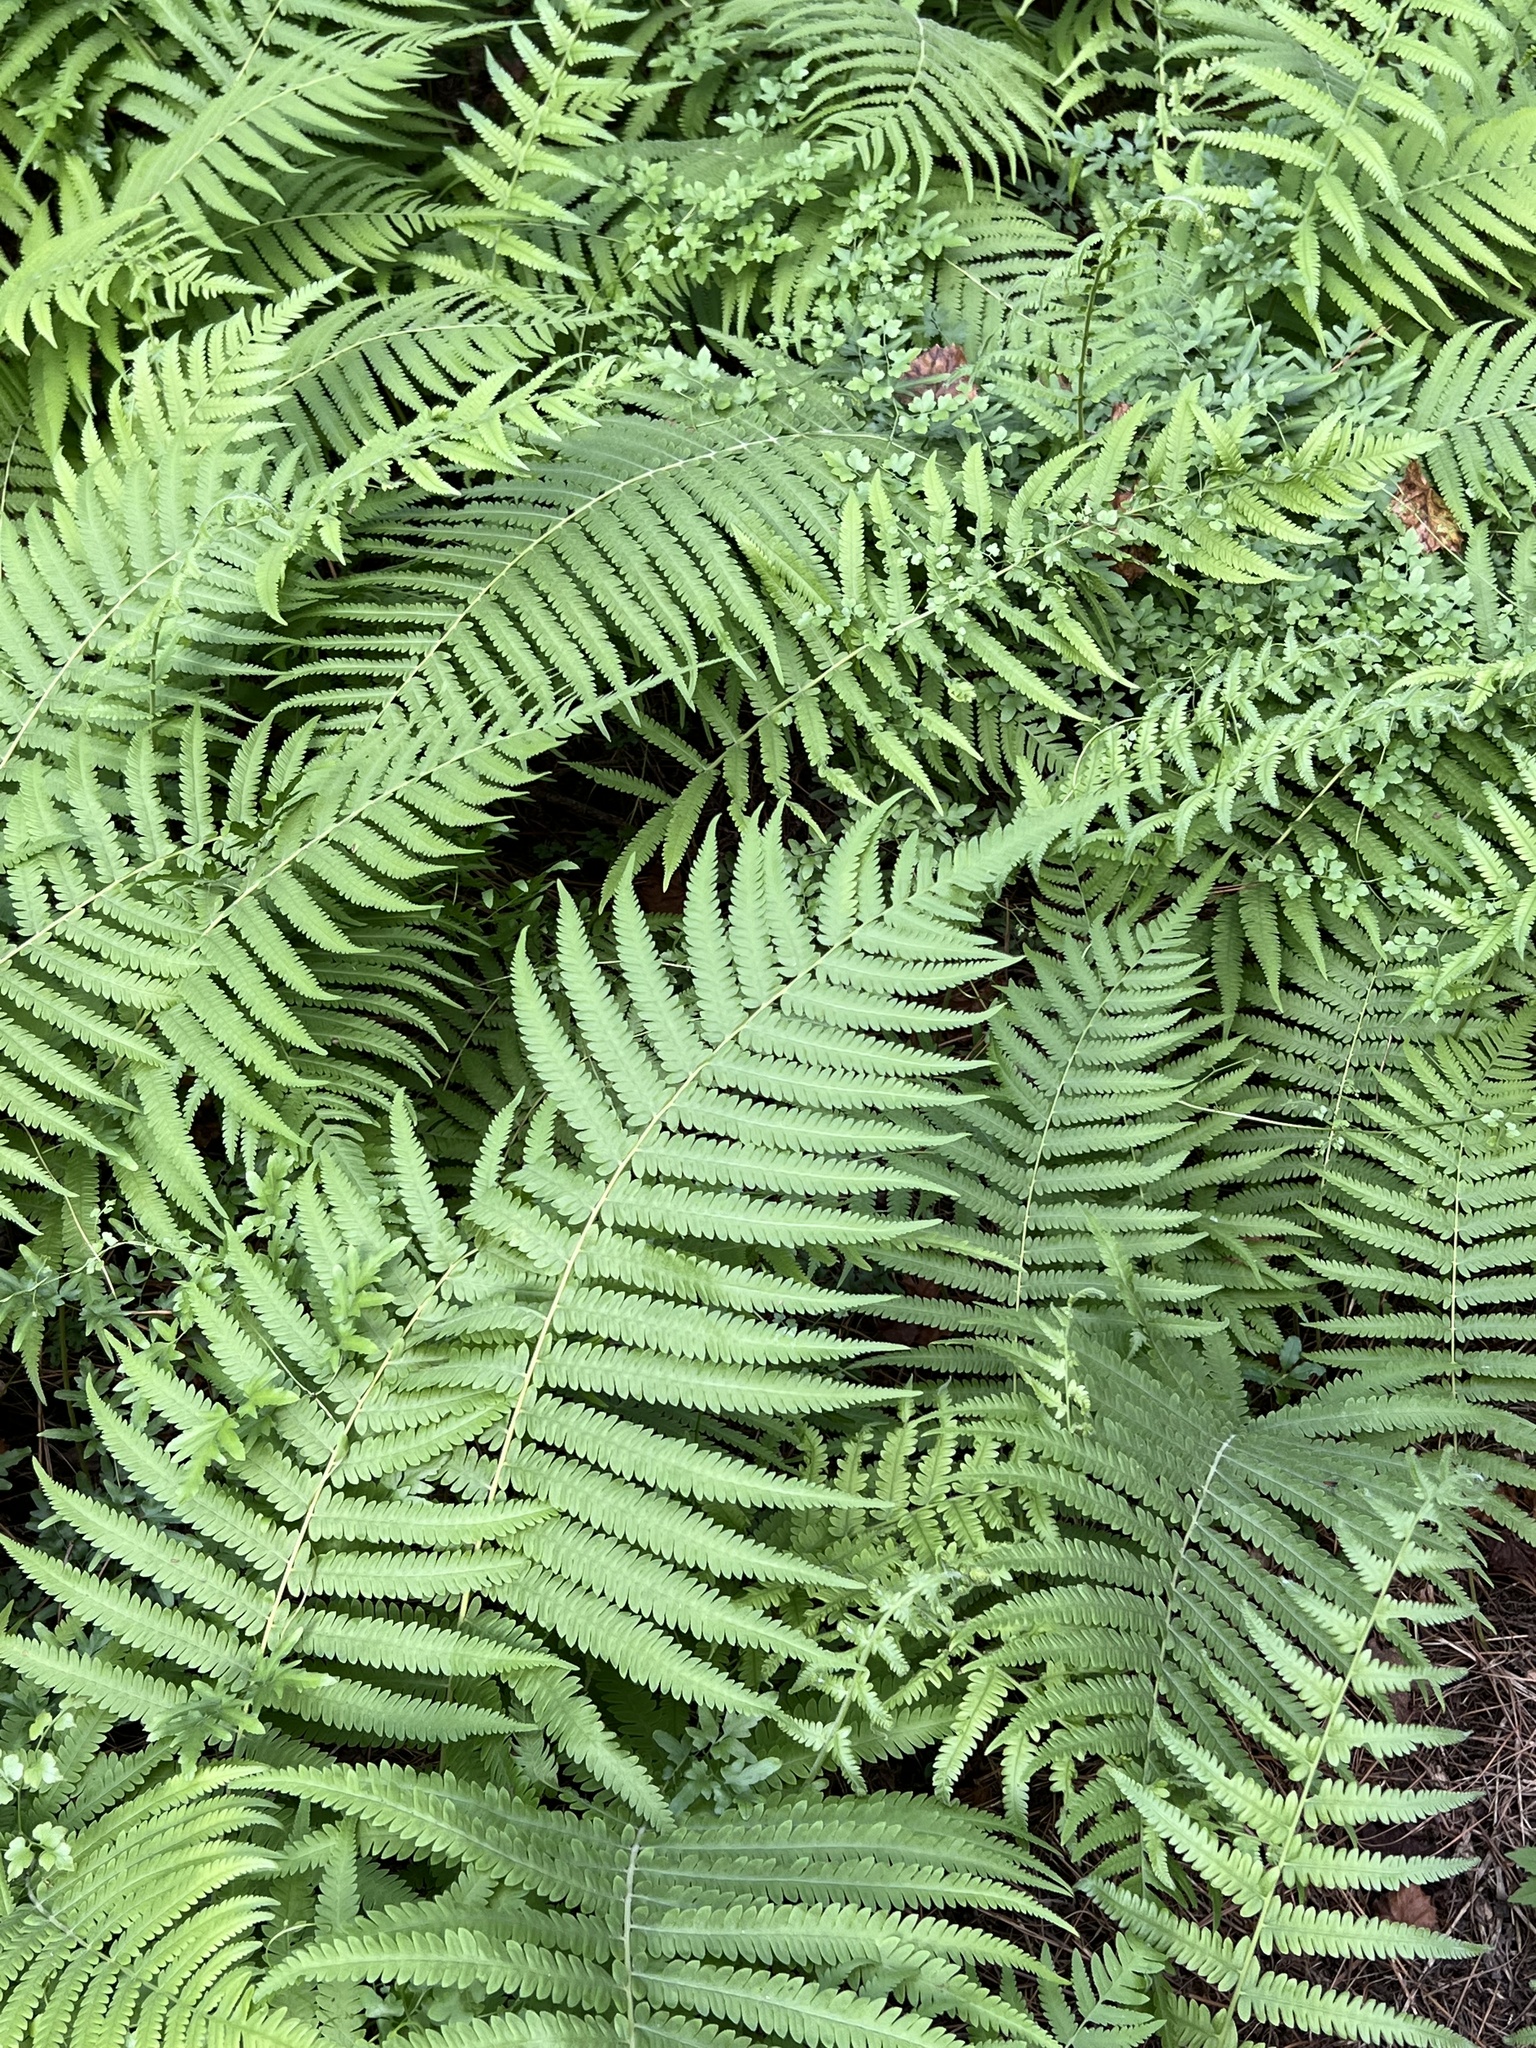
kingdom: Plantae
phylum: Tracheophyta
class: Polypodiopsida
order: Polypodiales
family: Thelypteridaceae
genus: Pelazoneuron
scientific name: Pelazoneuron kunthii
